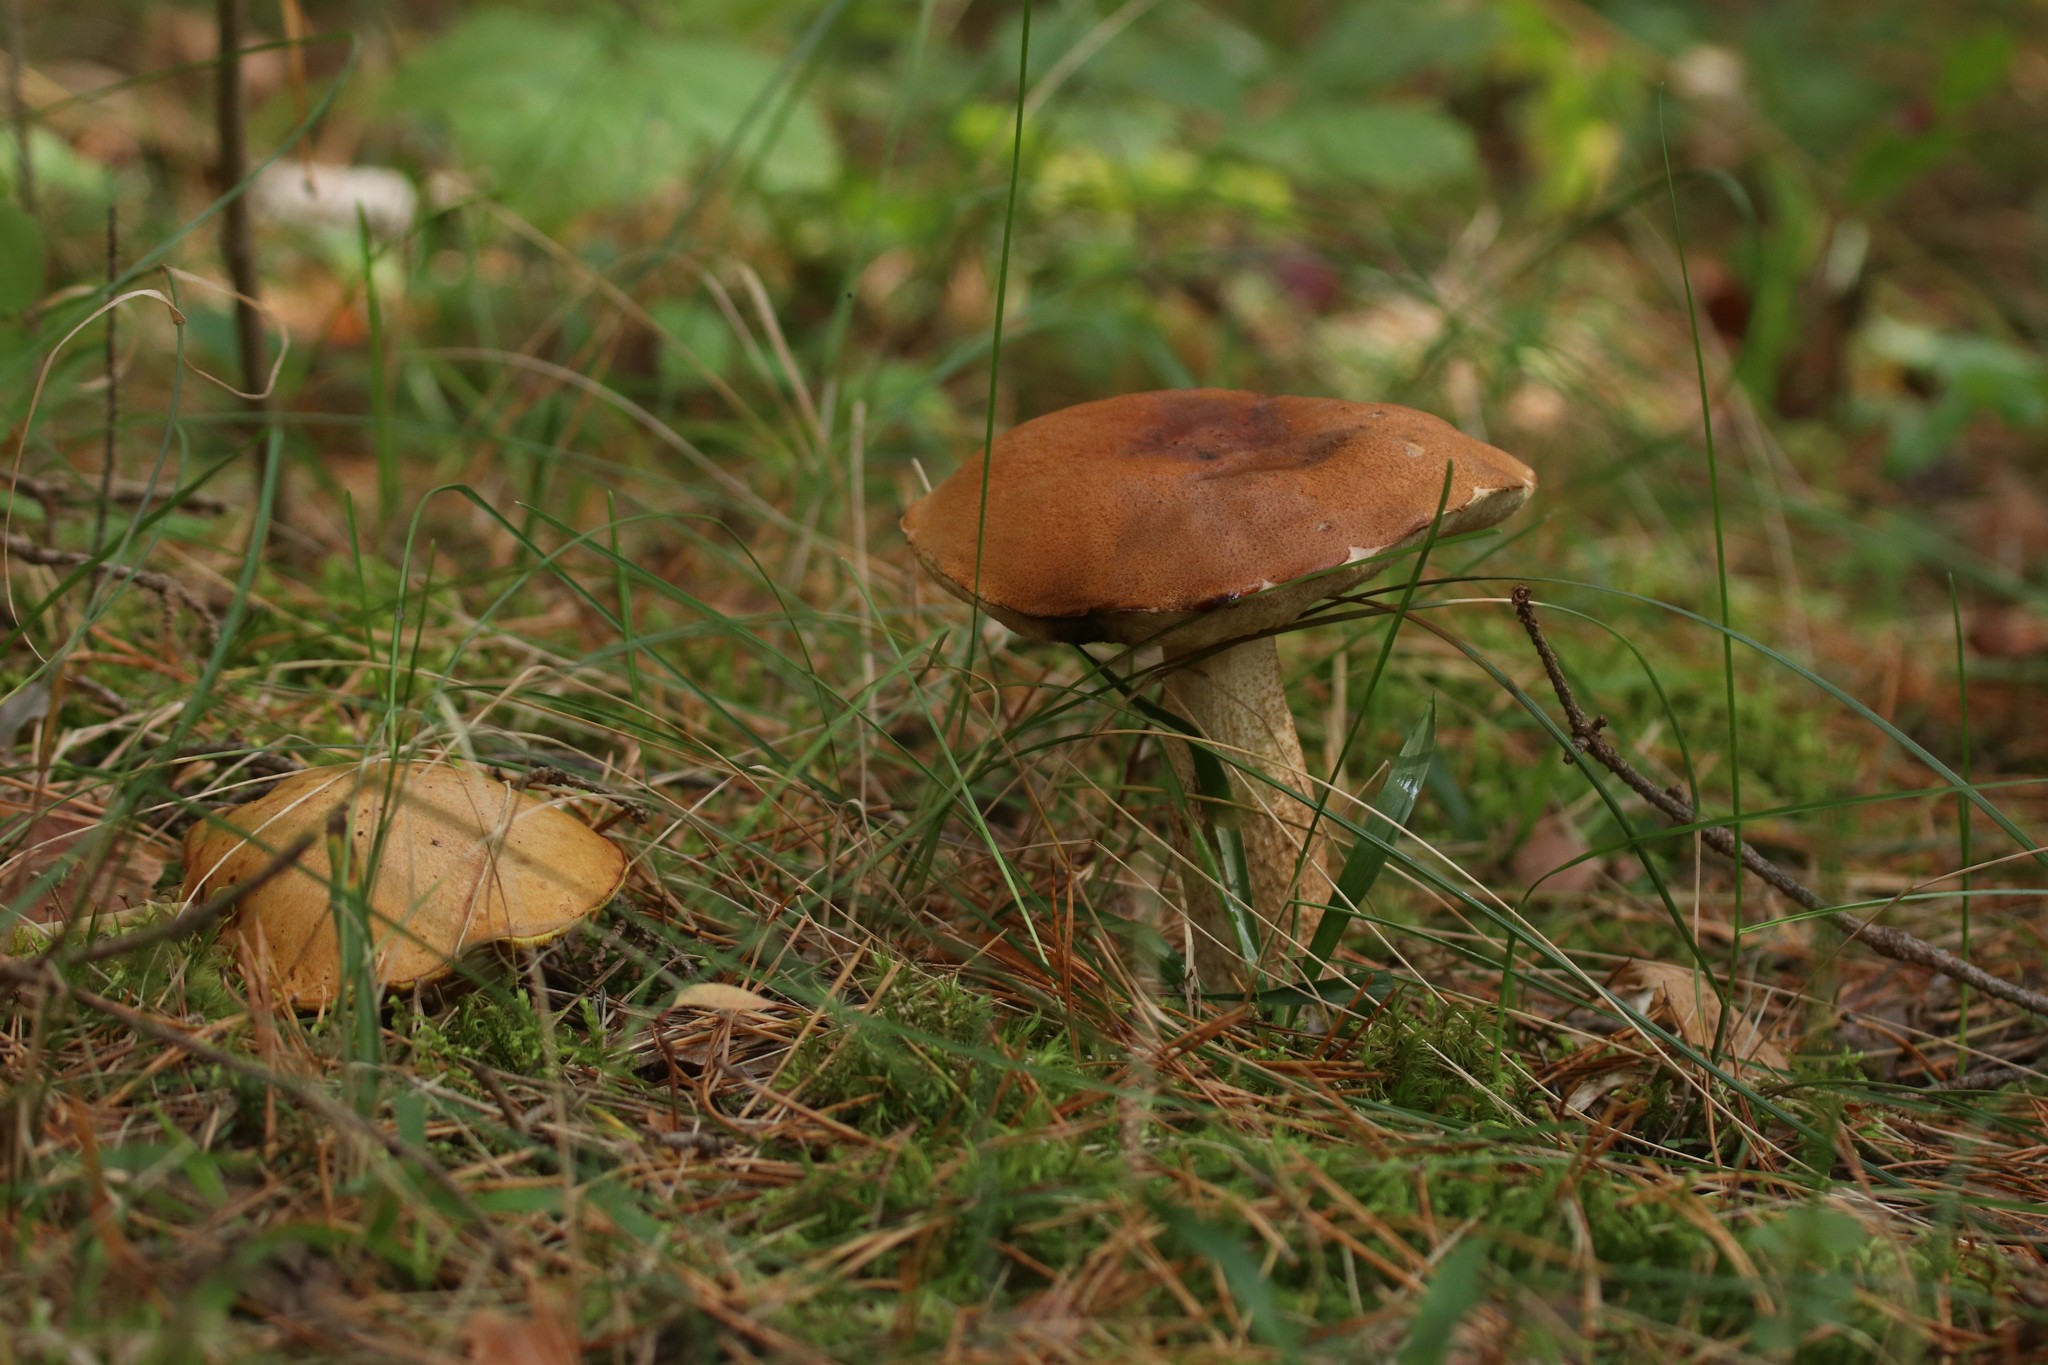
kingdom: Fungi
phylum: Basidiomycota
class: Agaricomycetes
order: Boletales
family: Boletaceae
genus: Leccinum
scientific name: Leccinum aurantiacum
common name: Orange bolete
